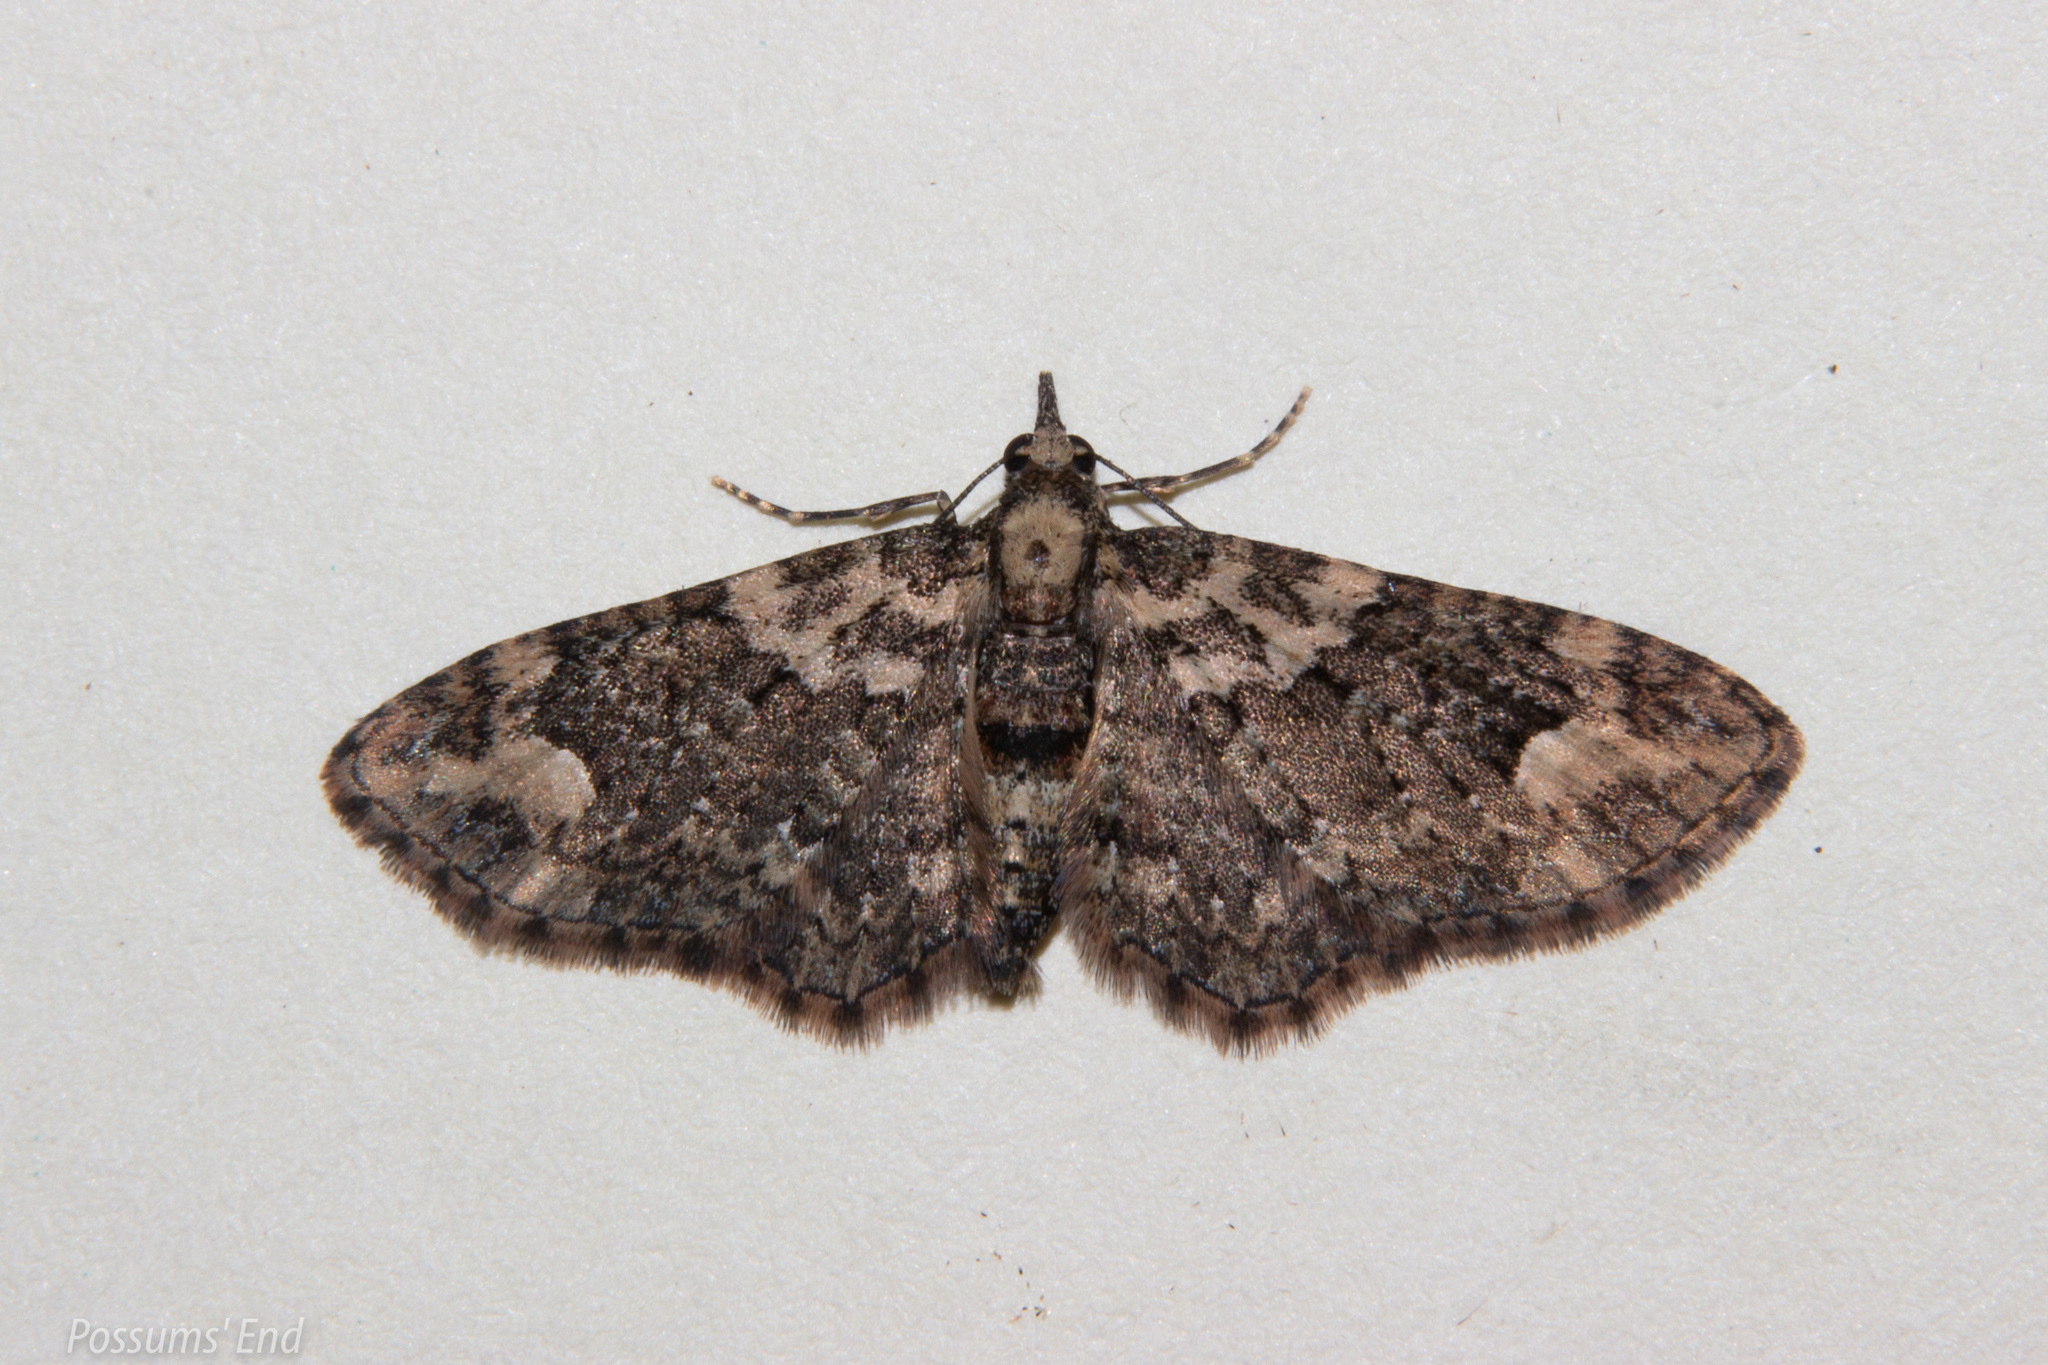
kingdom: Animalia
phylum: Arthropoda
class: Insecta
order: Lepidoptera
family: Geometridae
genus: Pasiphilodes
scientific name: Pasiphilodes testulata
